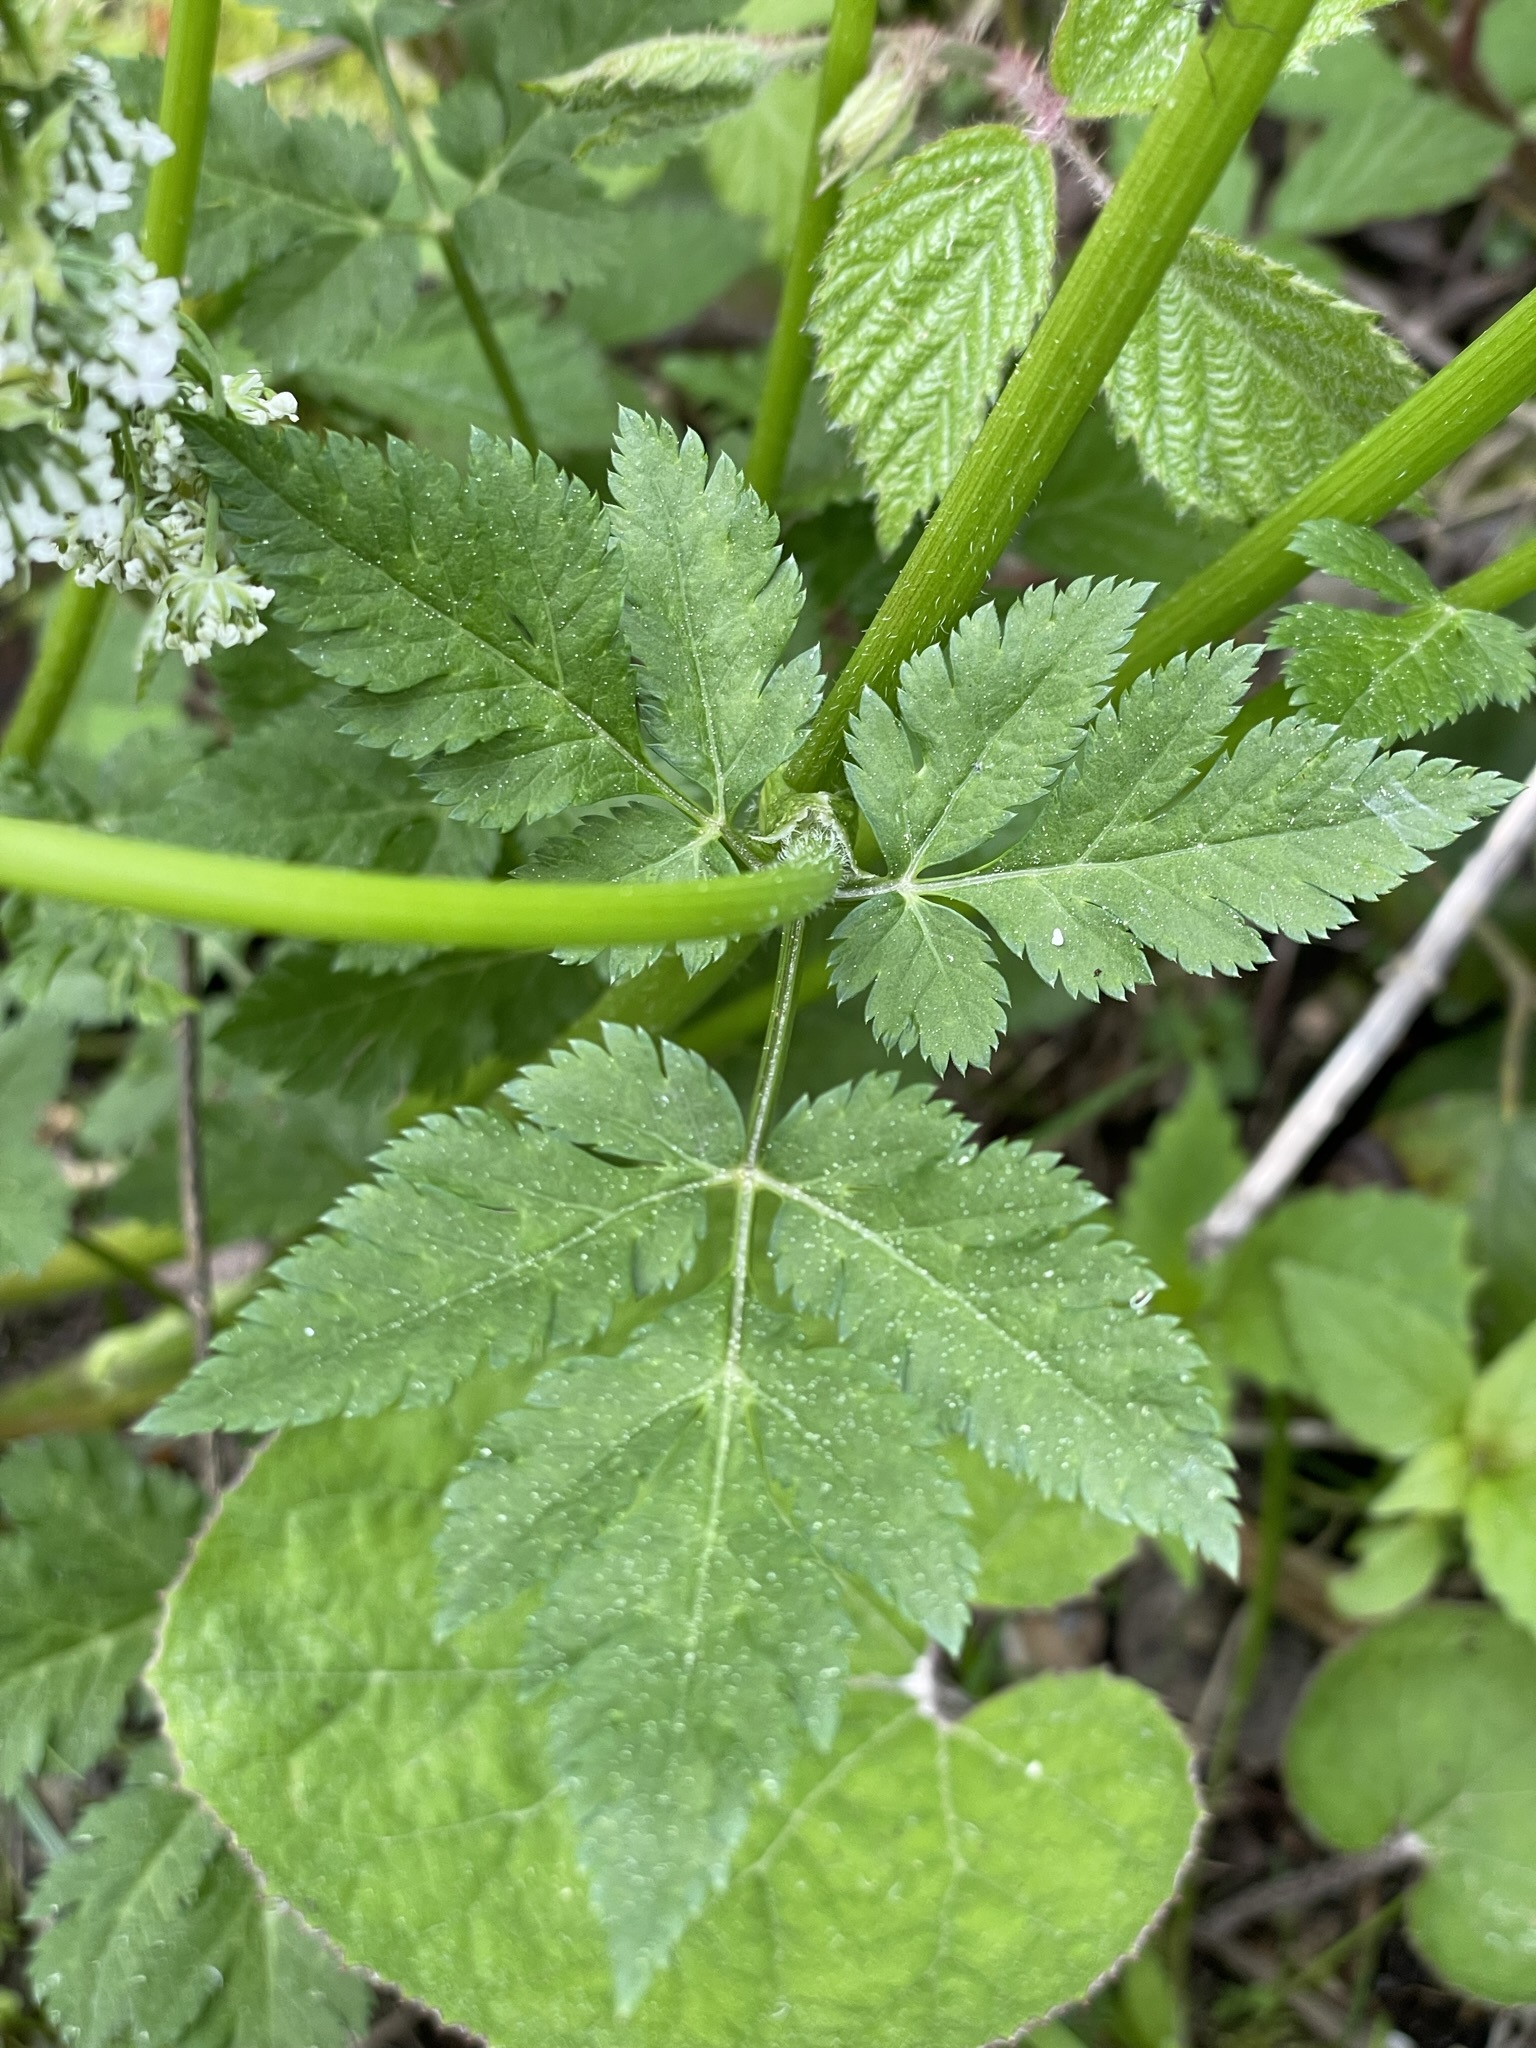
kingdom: Plantae
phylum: Tracheophyta
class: Magnoliopsida
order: Apiales
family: Apiaceae
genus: Chaerophyllum
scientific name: Chaerophyllum hirsutum
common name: Hairy chervil
